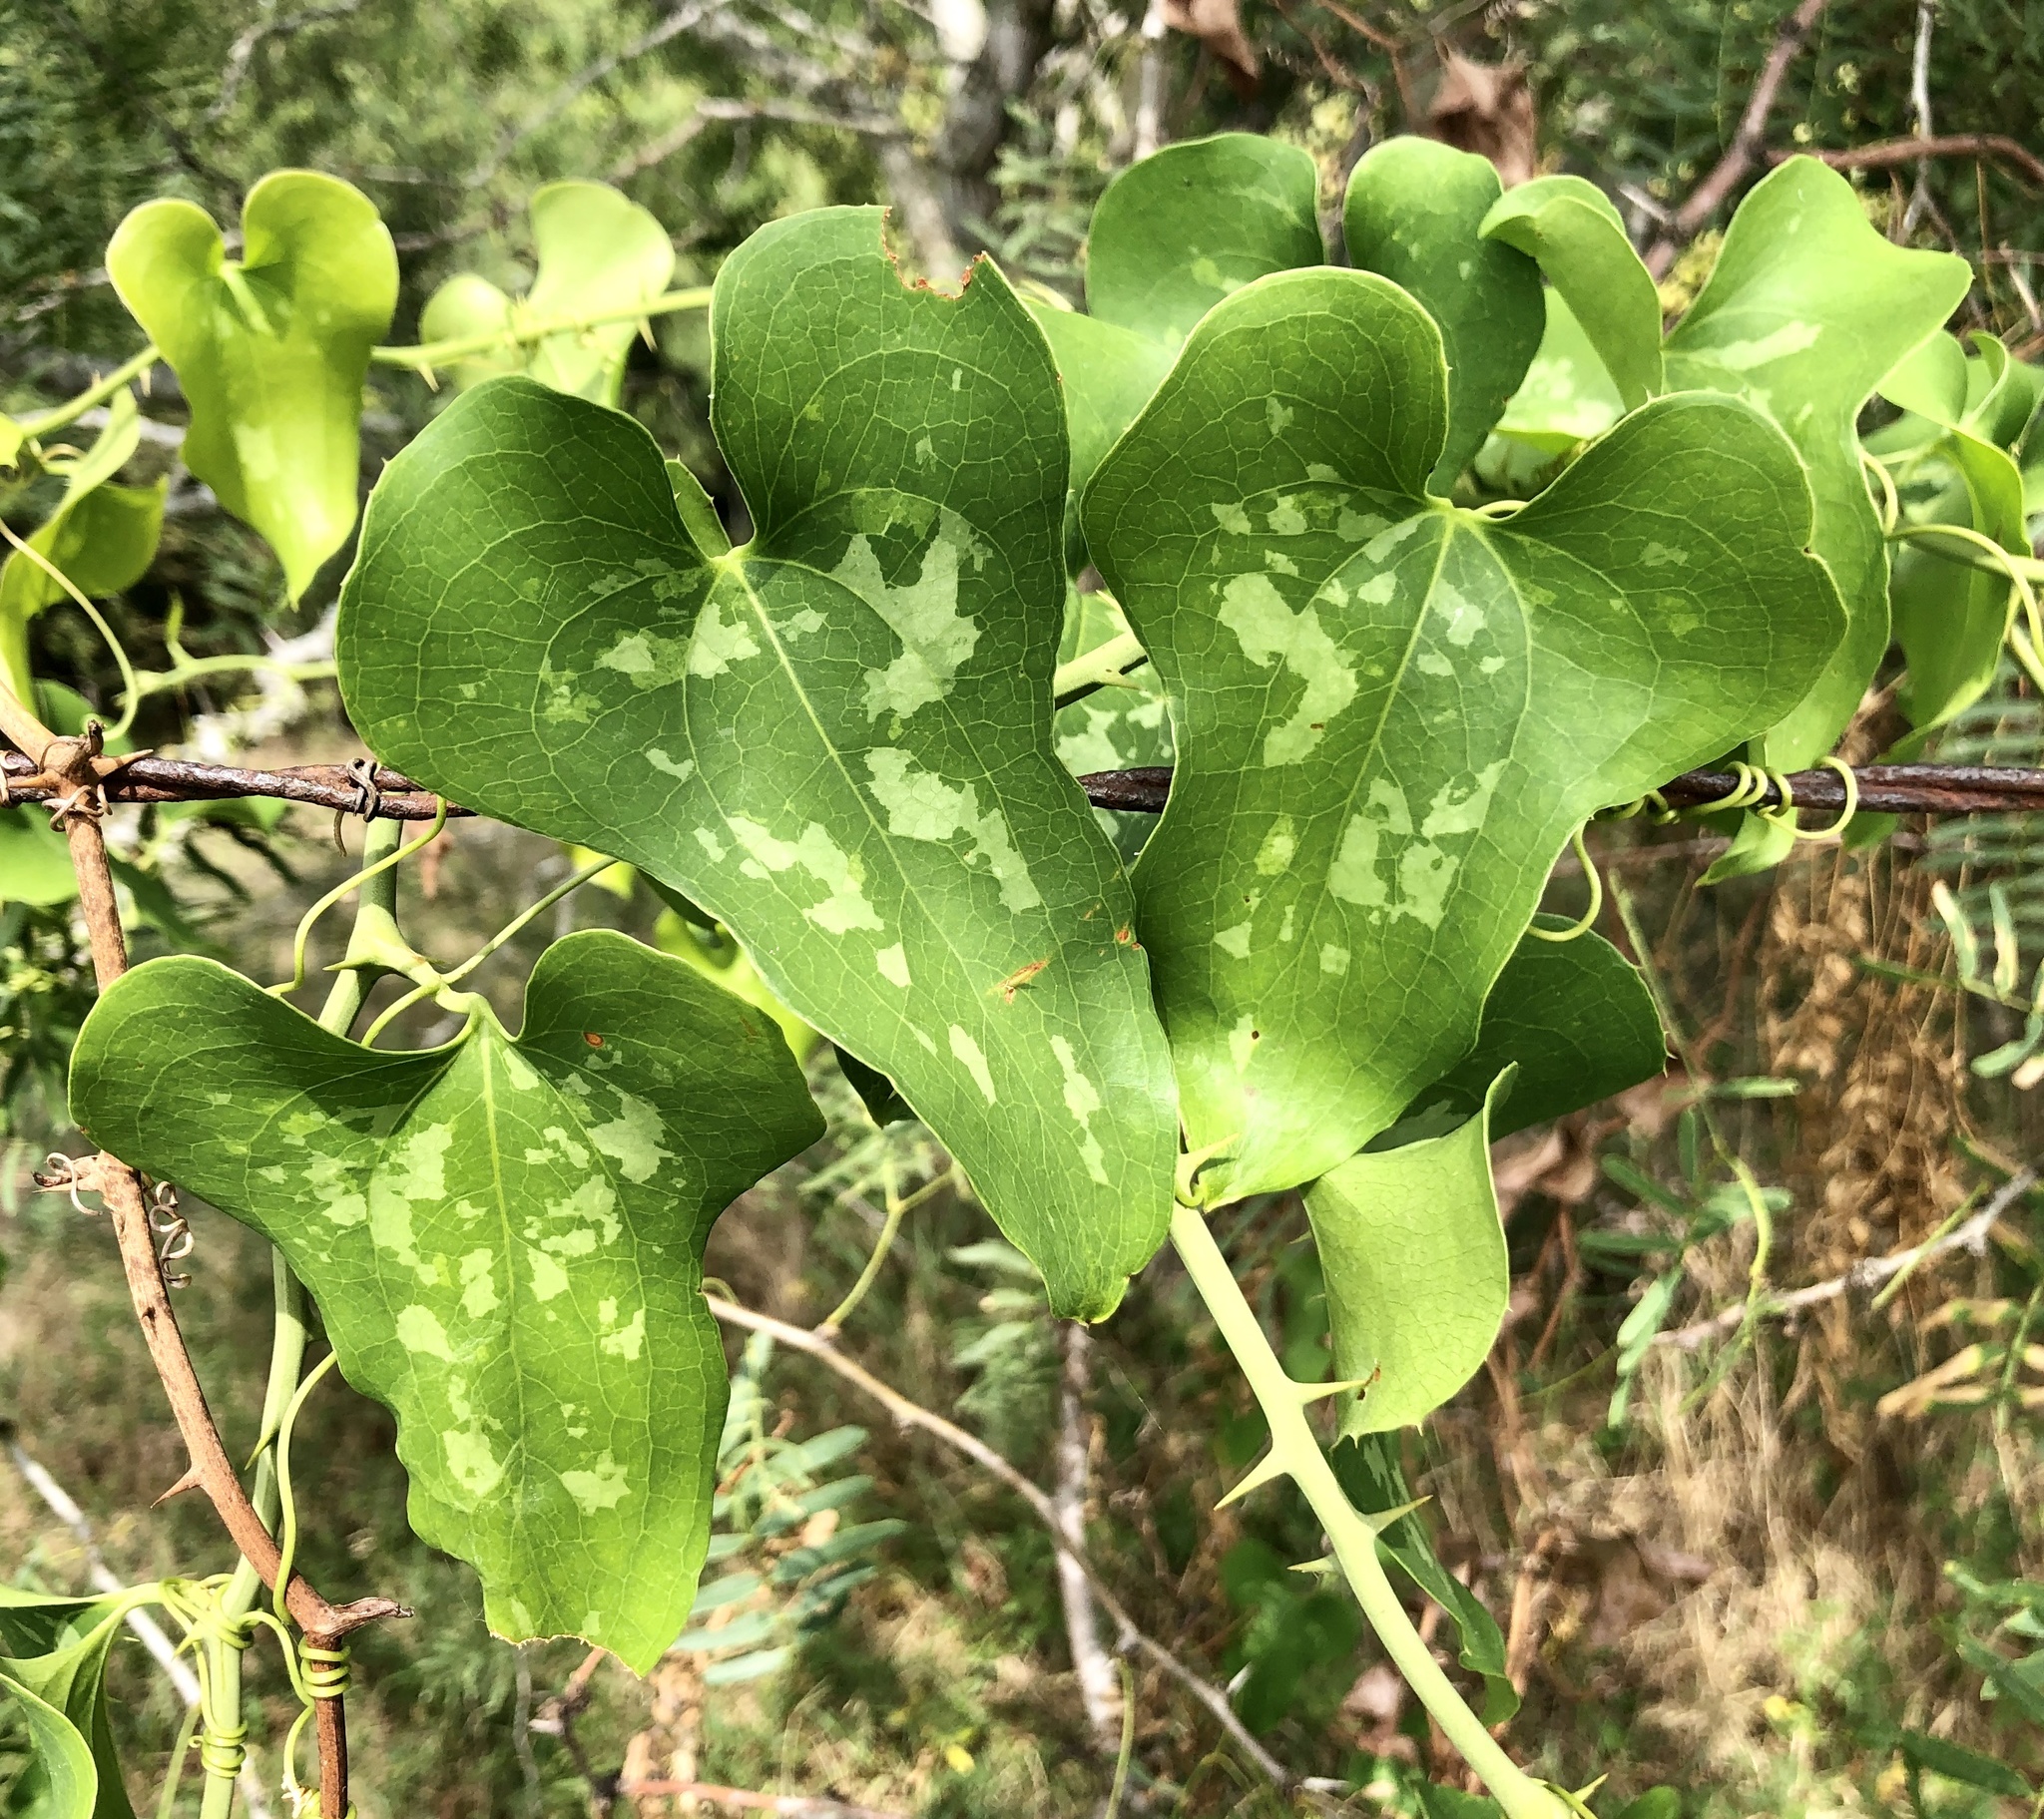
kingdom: Plantae
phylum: Tracheophyta
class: Liliopsida
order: Liliales
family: Smilacaceae
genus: Smilax
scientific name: Smilax bona-nox
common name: Catbrier
